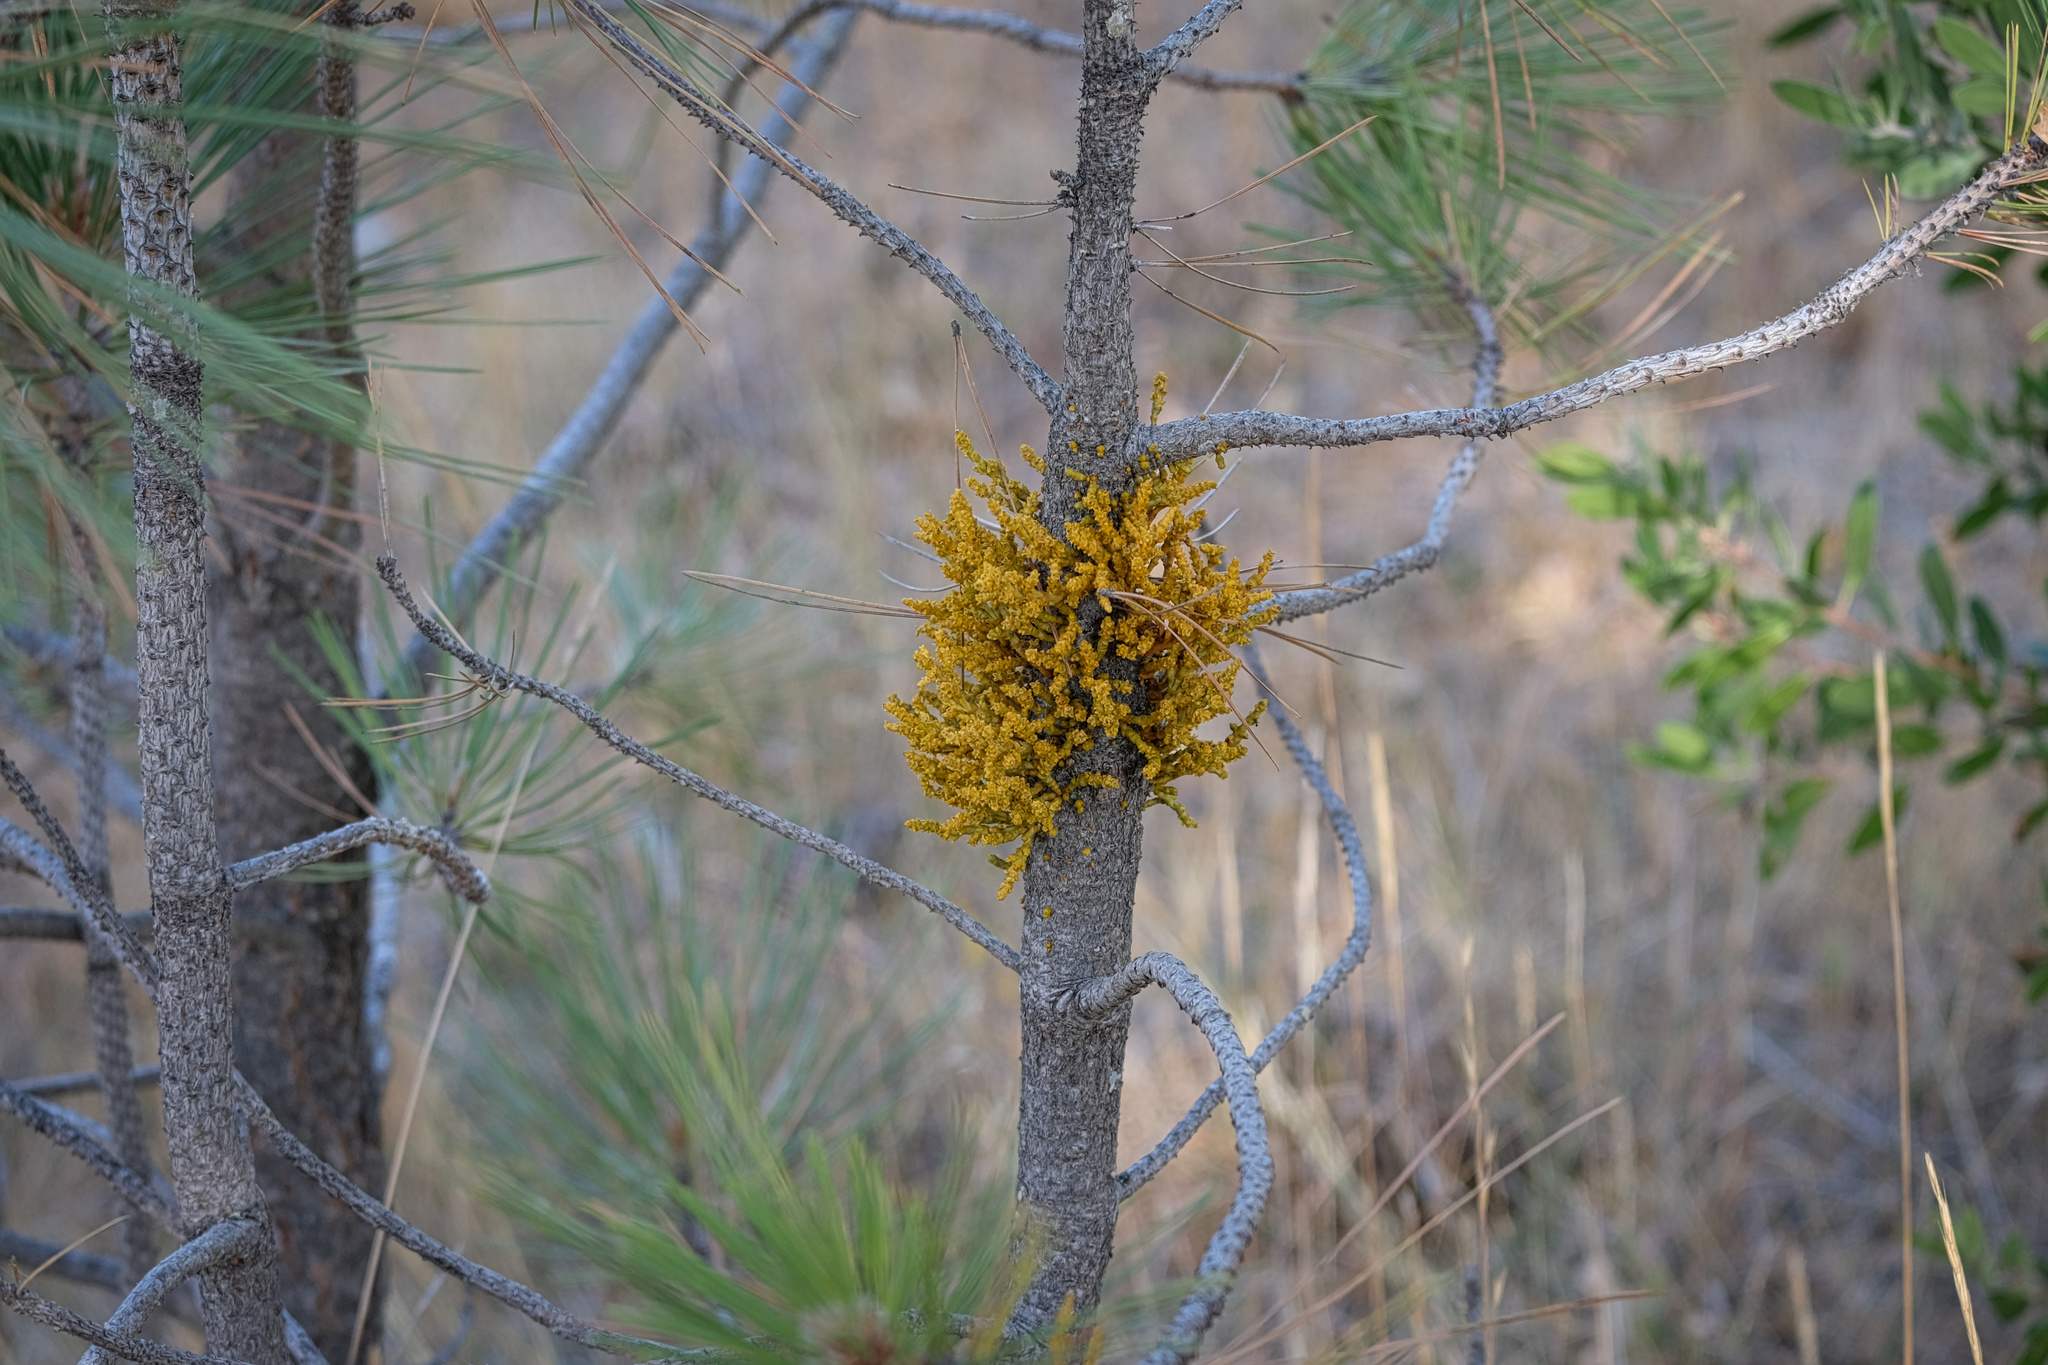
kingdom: Plantae
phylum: Tracheophyta
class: Magnoliopsida
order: Santalales
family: Viscaceae
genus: Arceuthobium
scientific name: Arceuthobium campylopodum
